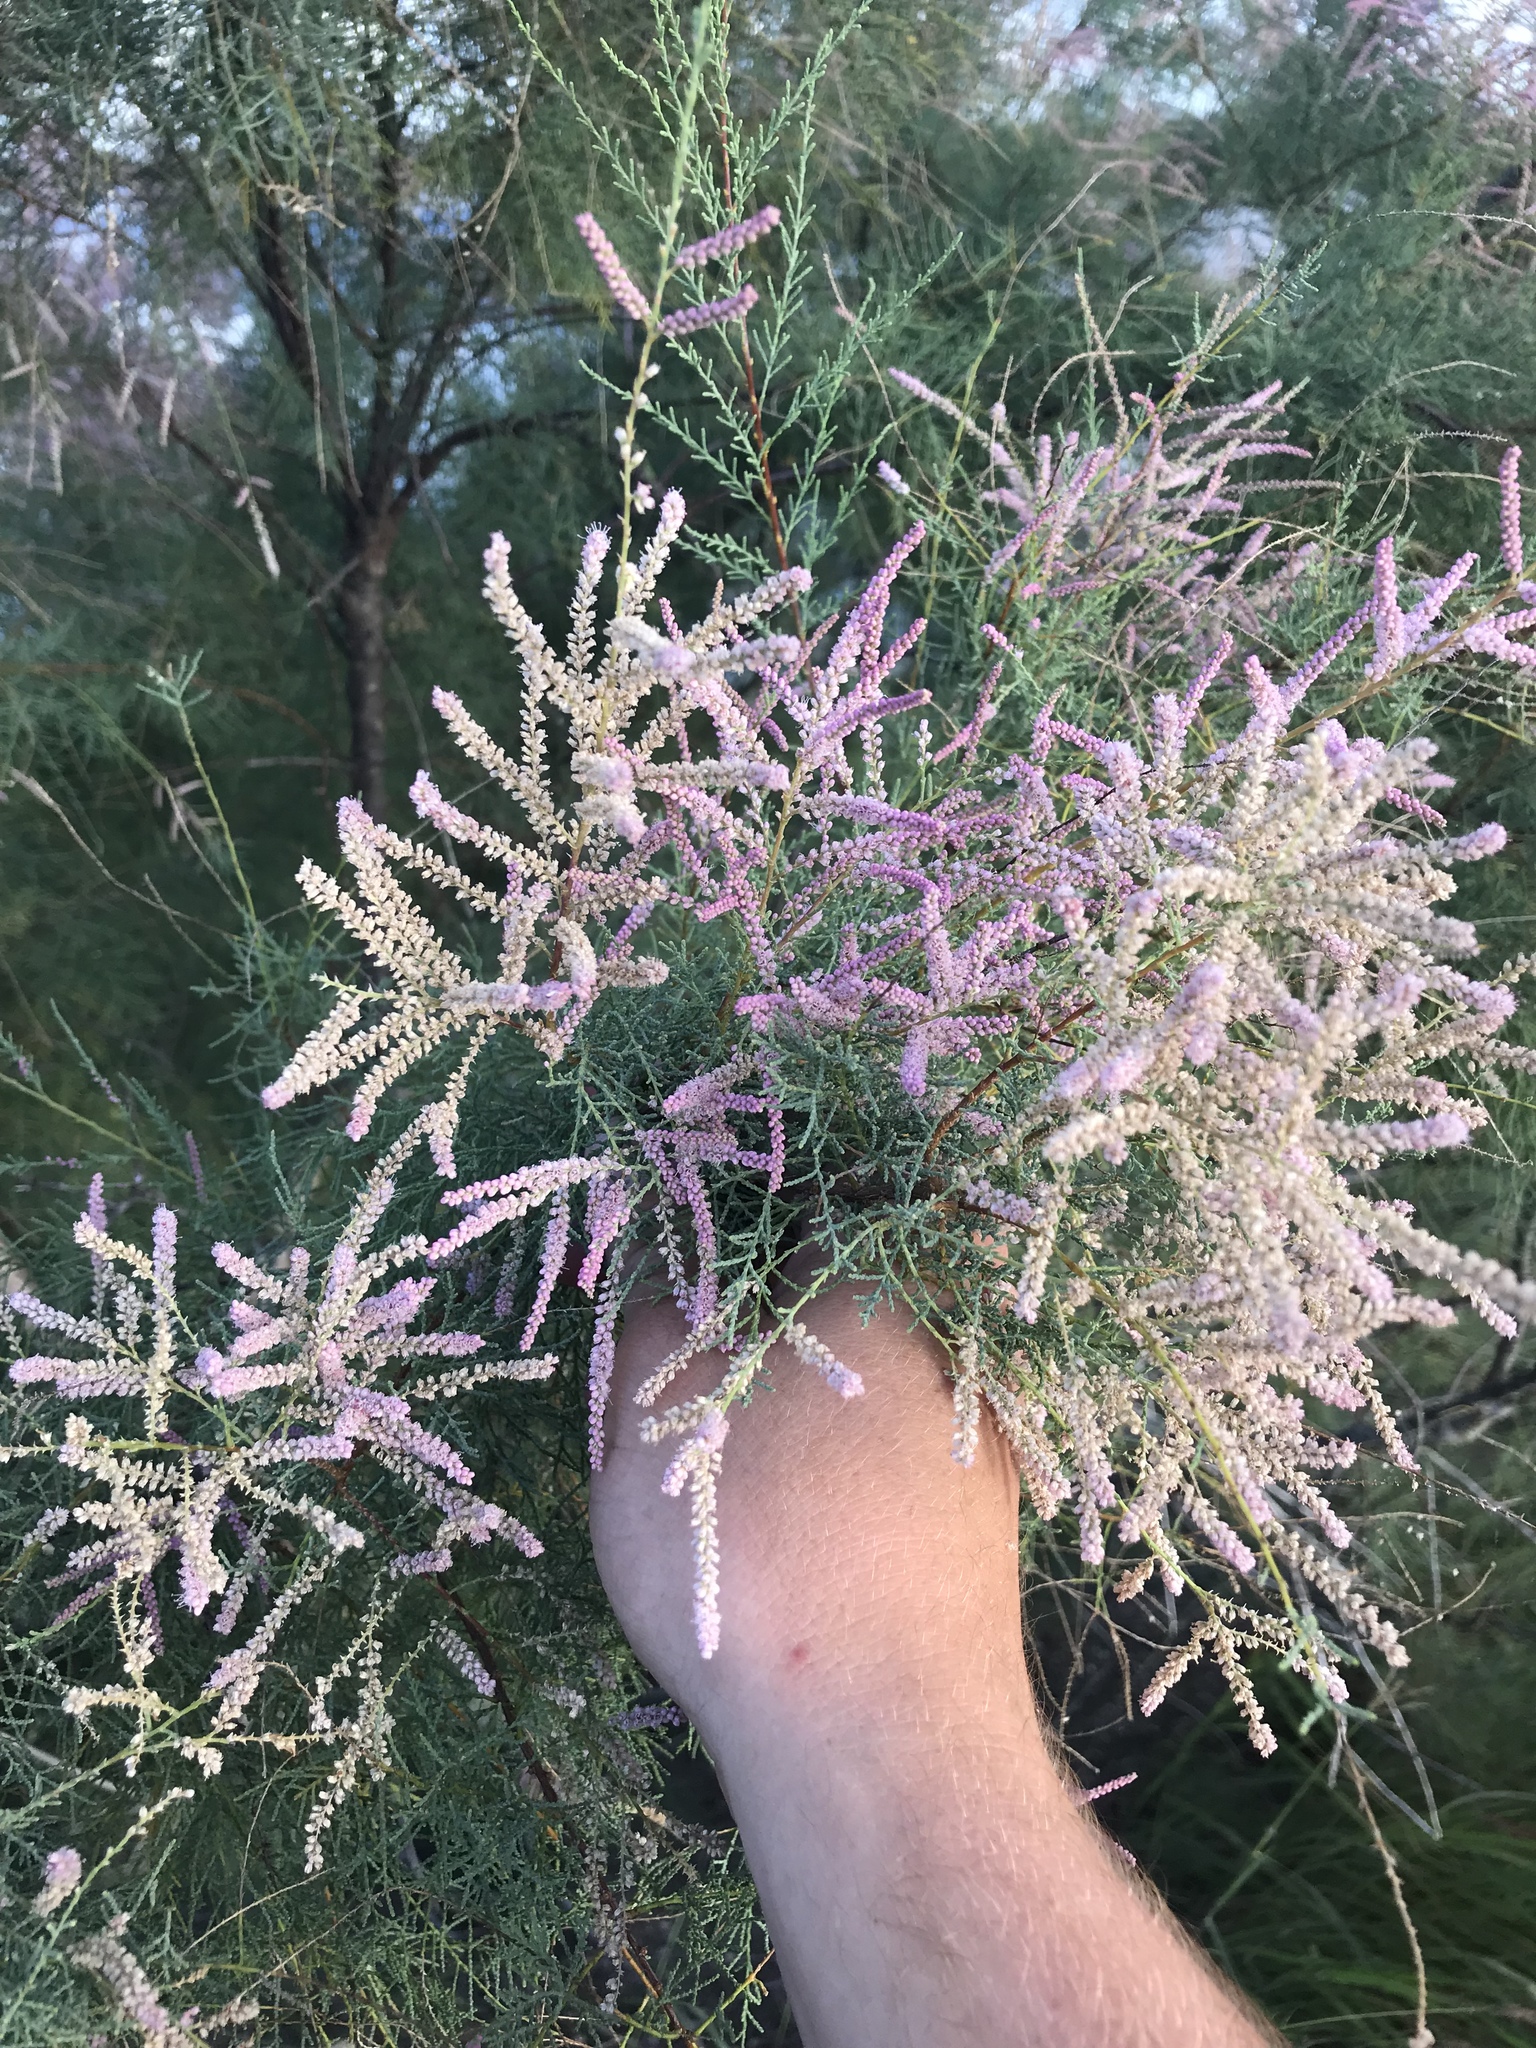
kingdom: Plantae
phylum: Tracheophyta
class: Magnoliopsida
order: Caryophyllales
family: Tamaricaceae
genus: Tamarix
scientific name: Tamarix
